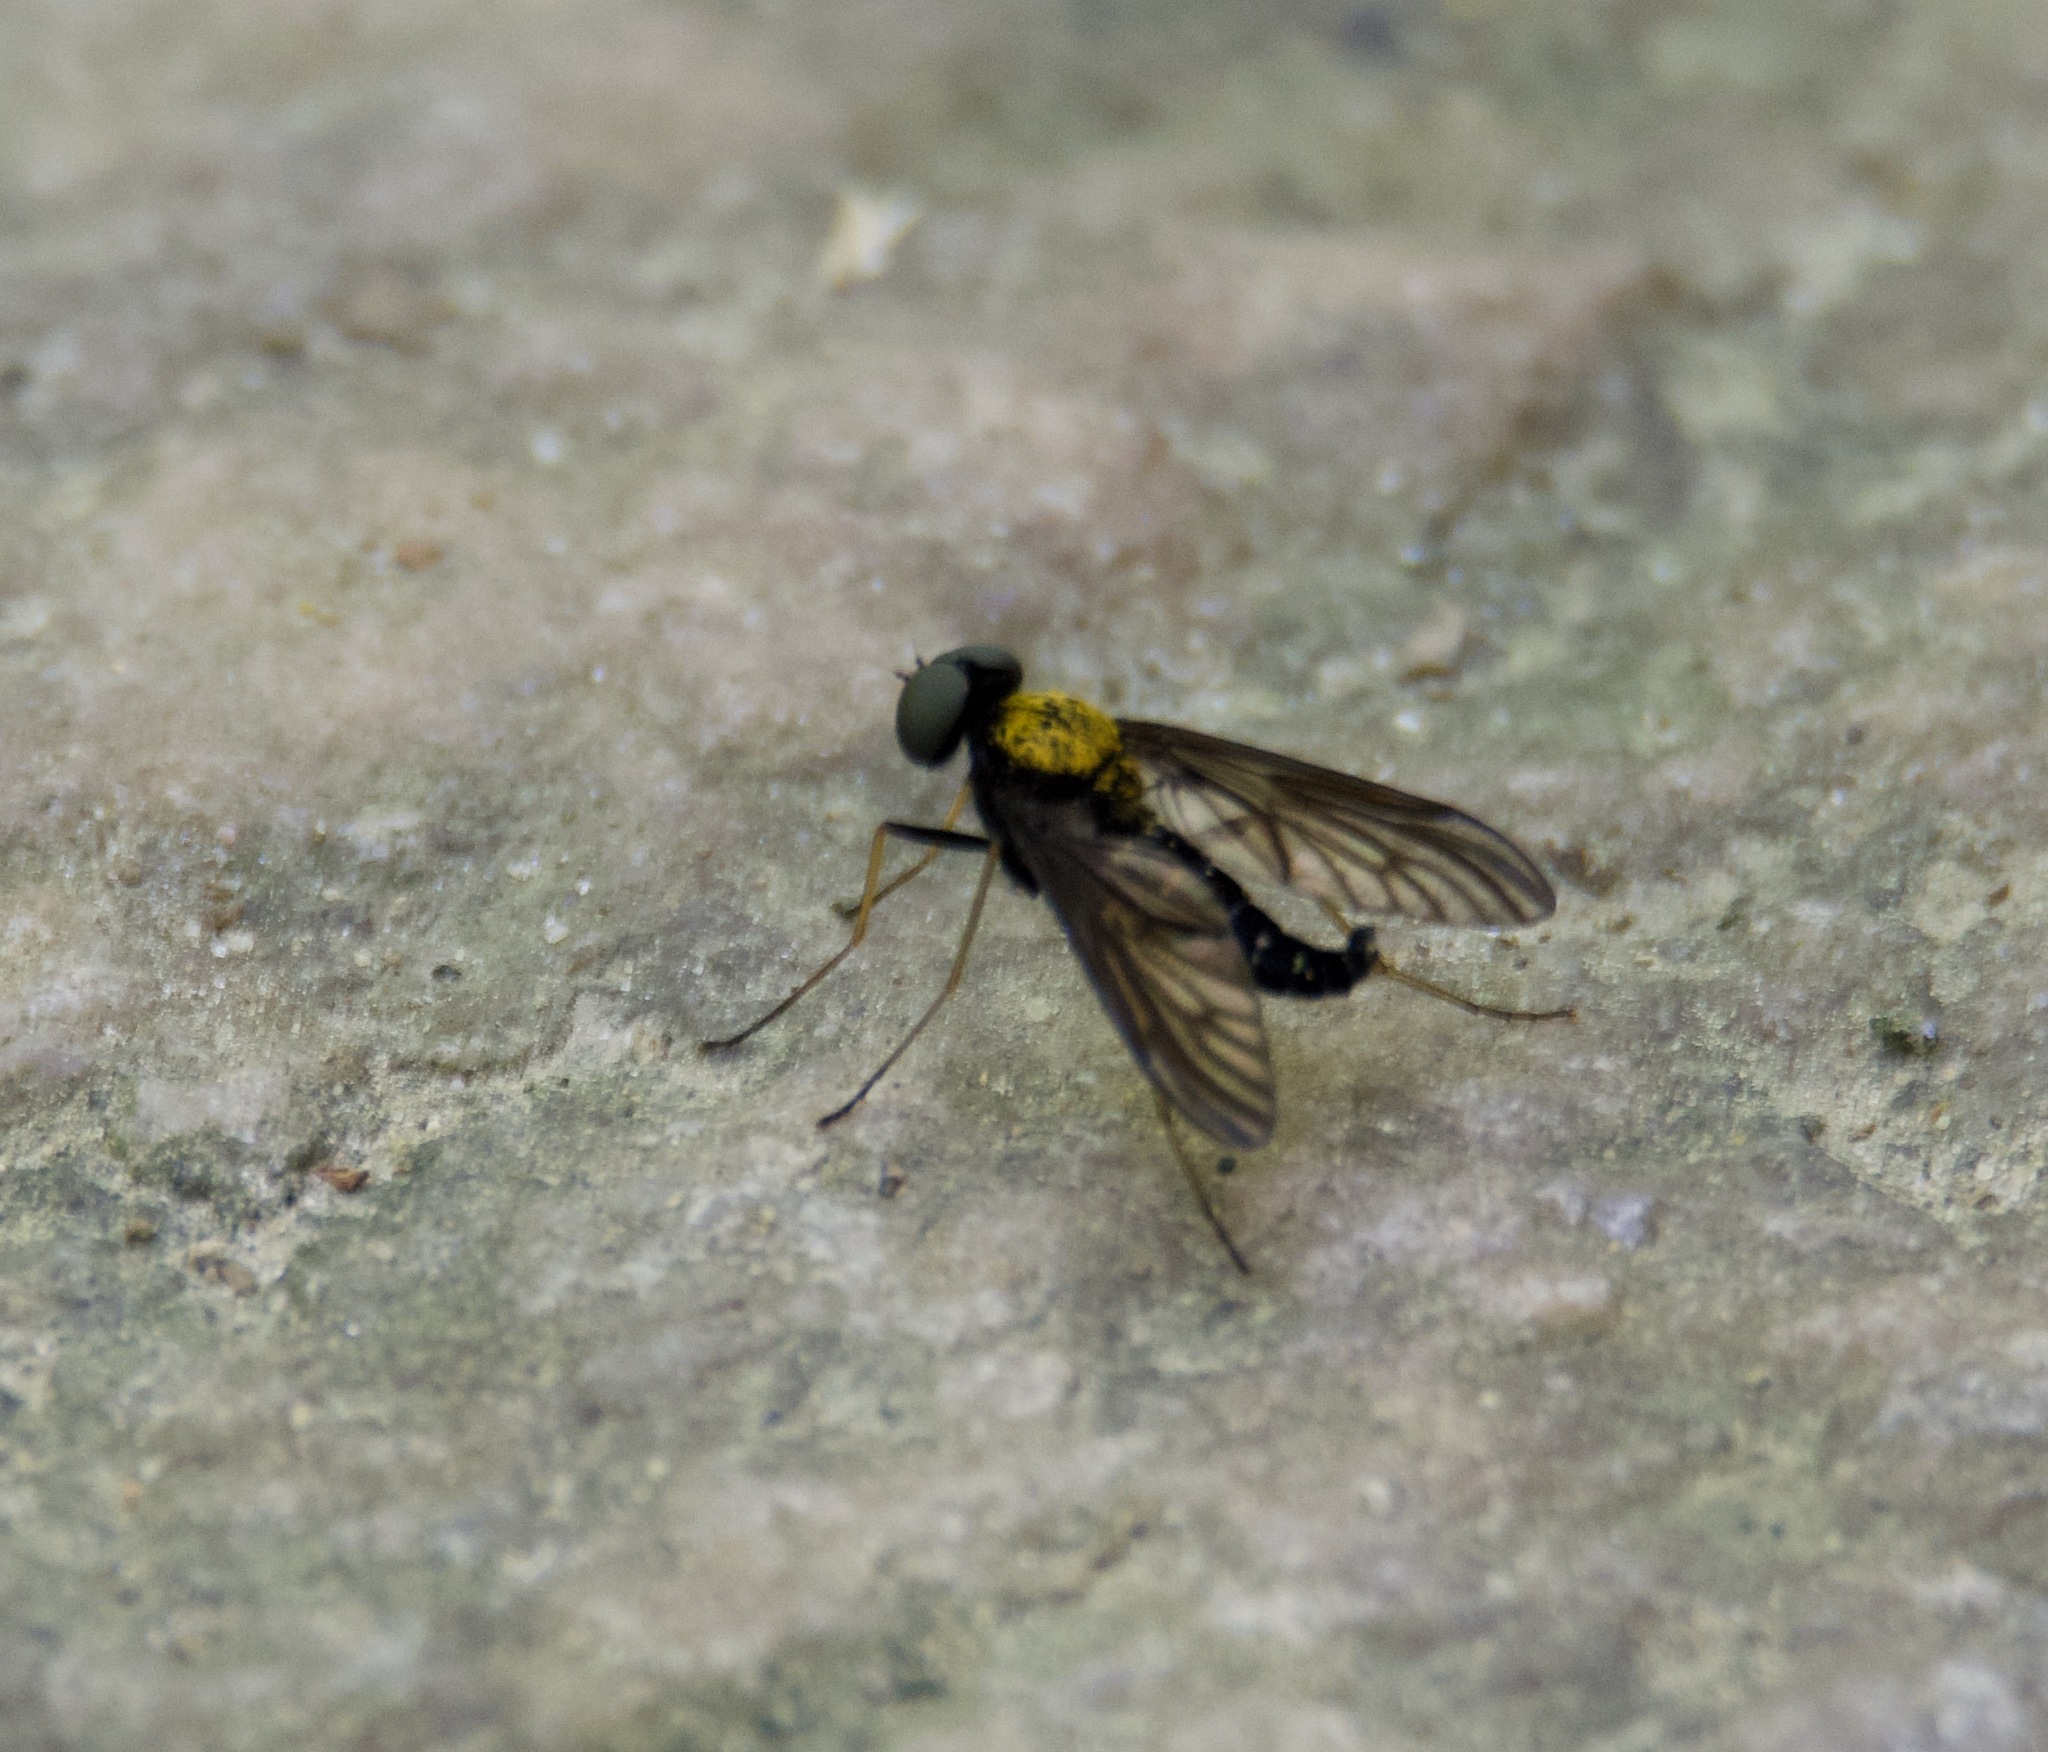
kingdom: Animalia
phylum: Arthropoda
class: Insecta
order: Diptera
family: Rhagionidae
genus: Chrysopilus
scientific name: Chrysopilus thoracicus
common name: Golden-backed snipe fly
